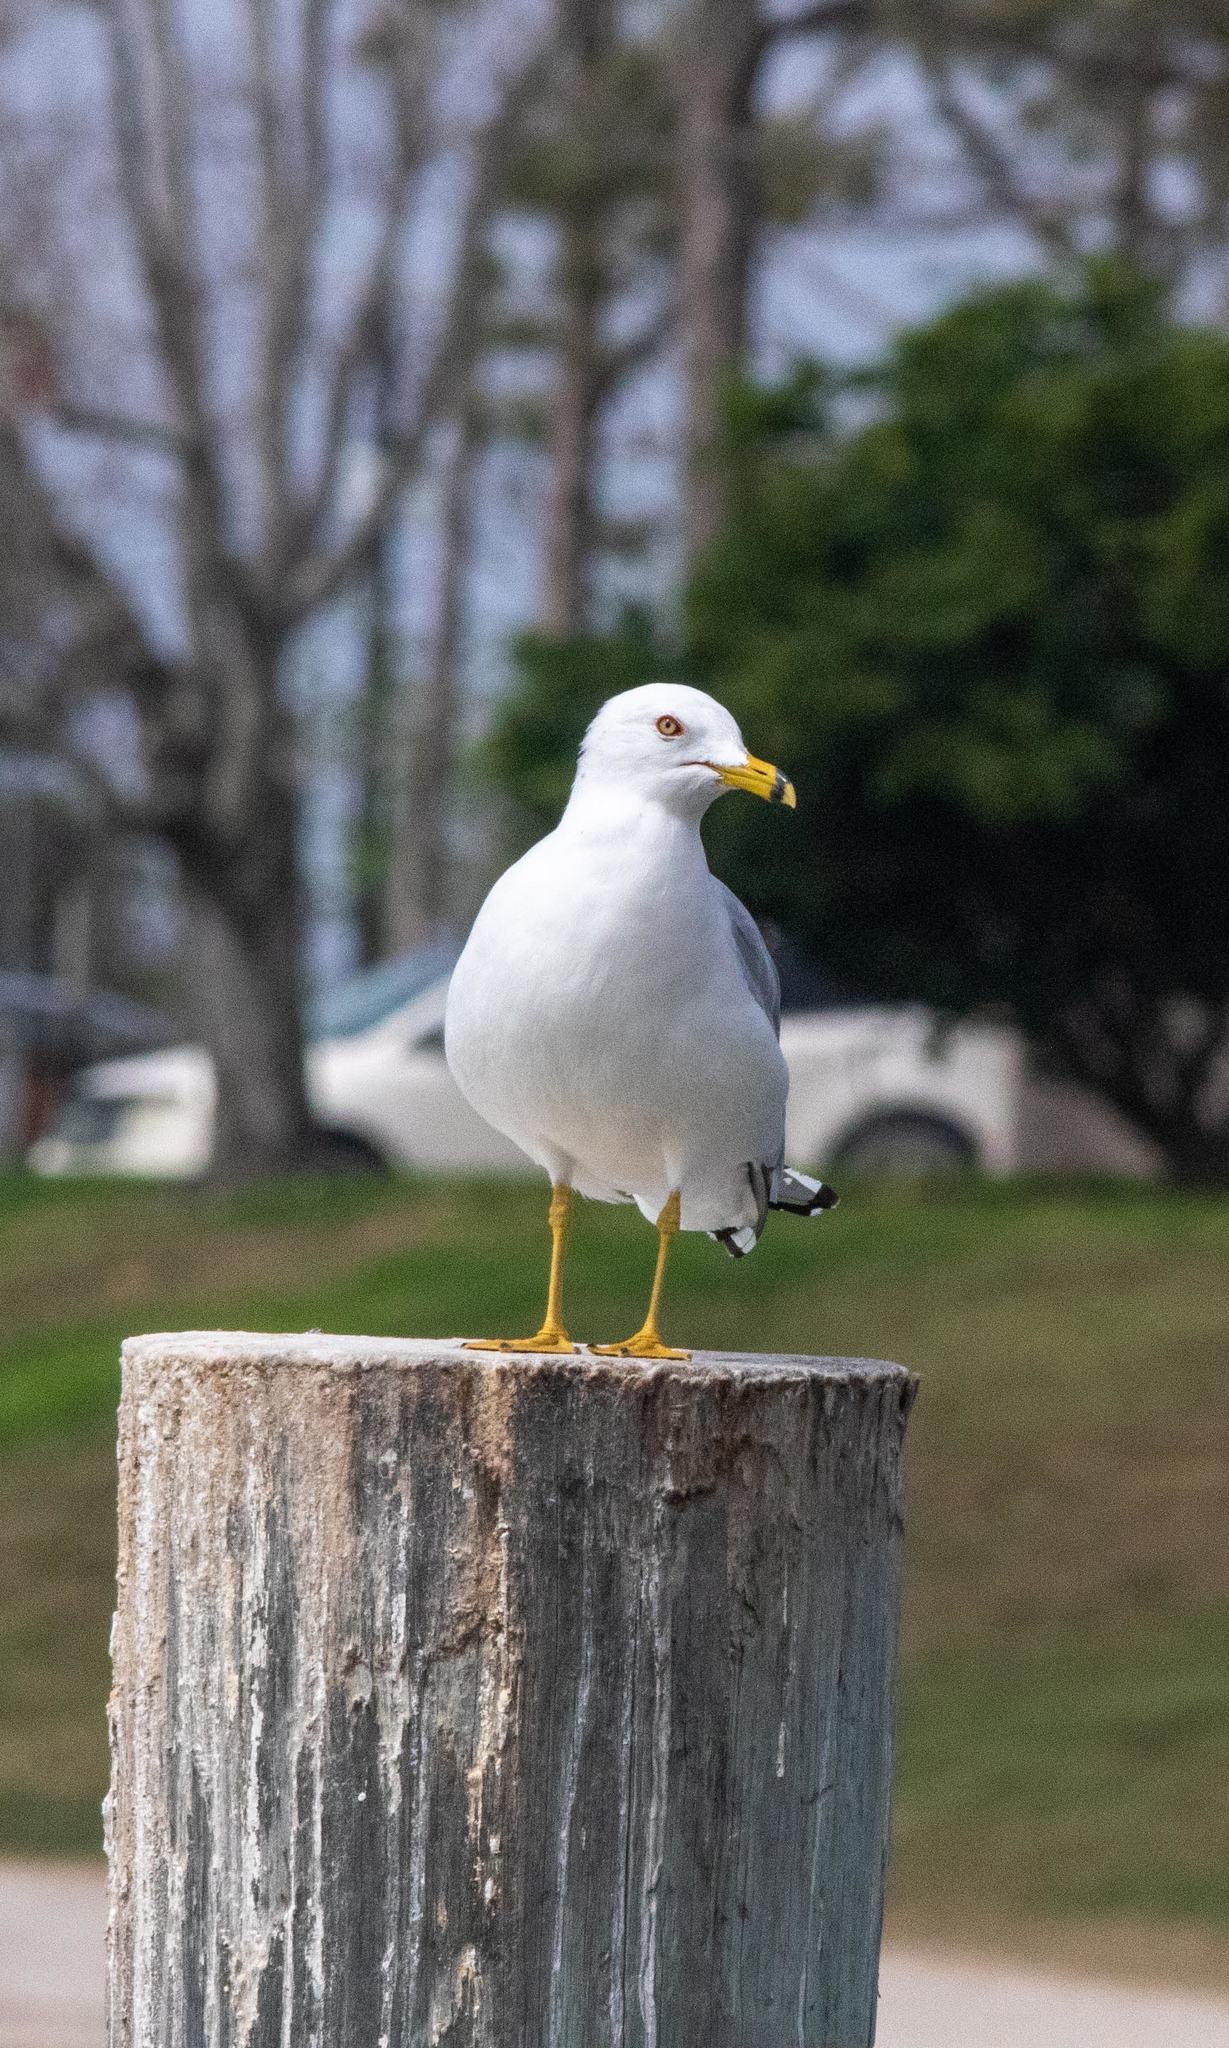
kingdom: Animalia
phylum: Chordata
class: Aves
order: Charadriiformes
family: Laridae
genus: Larus
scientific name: Larus delawarensis
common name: Ring-billed gull
